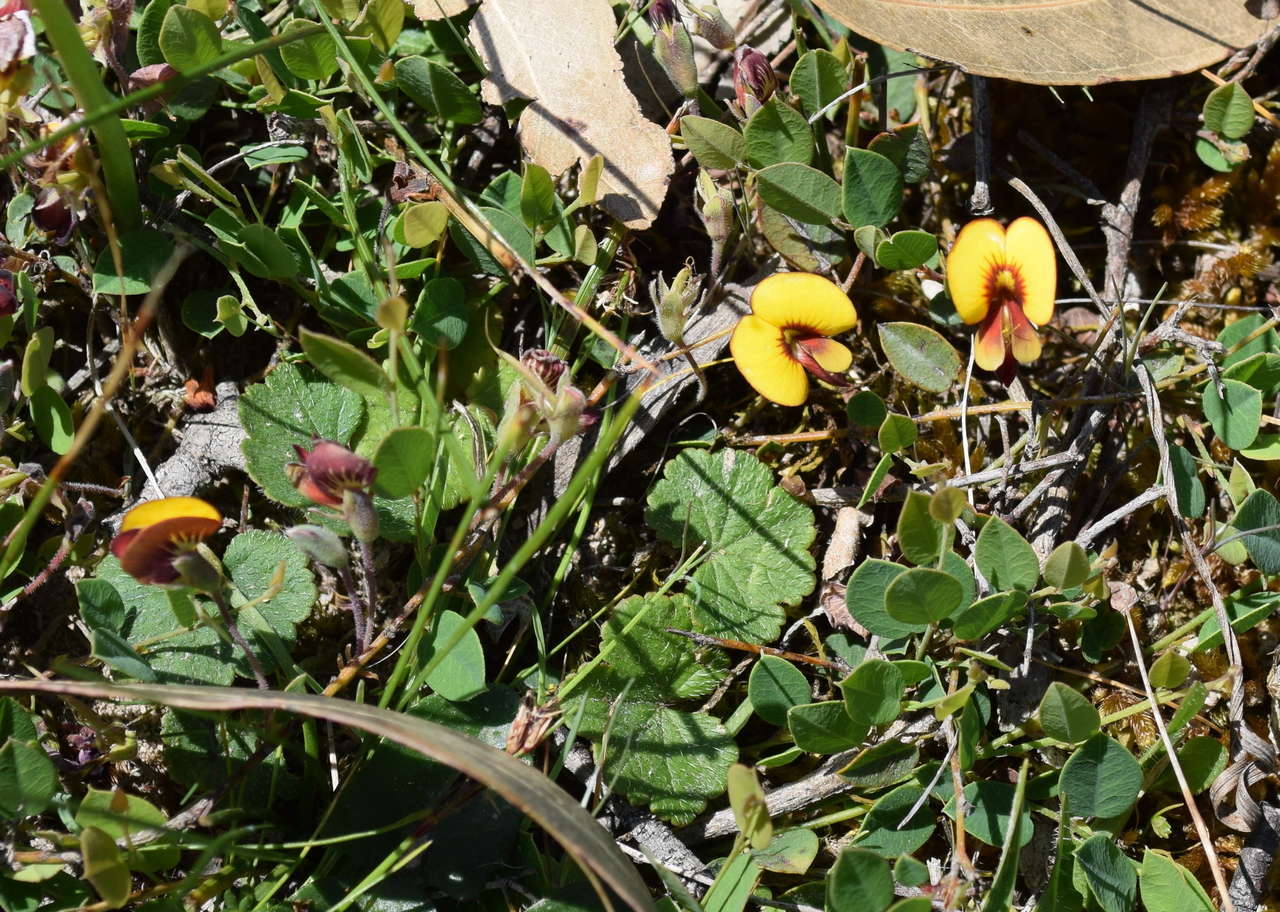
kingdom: Plantae
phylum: Tracheophyta
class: Magnoliopsida
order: Fabales
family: Fabaceae
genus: Bossiaea
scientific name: Bossiaea prostrata
